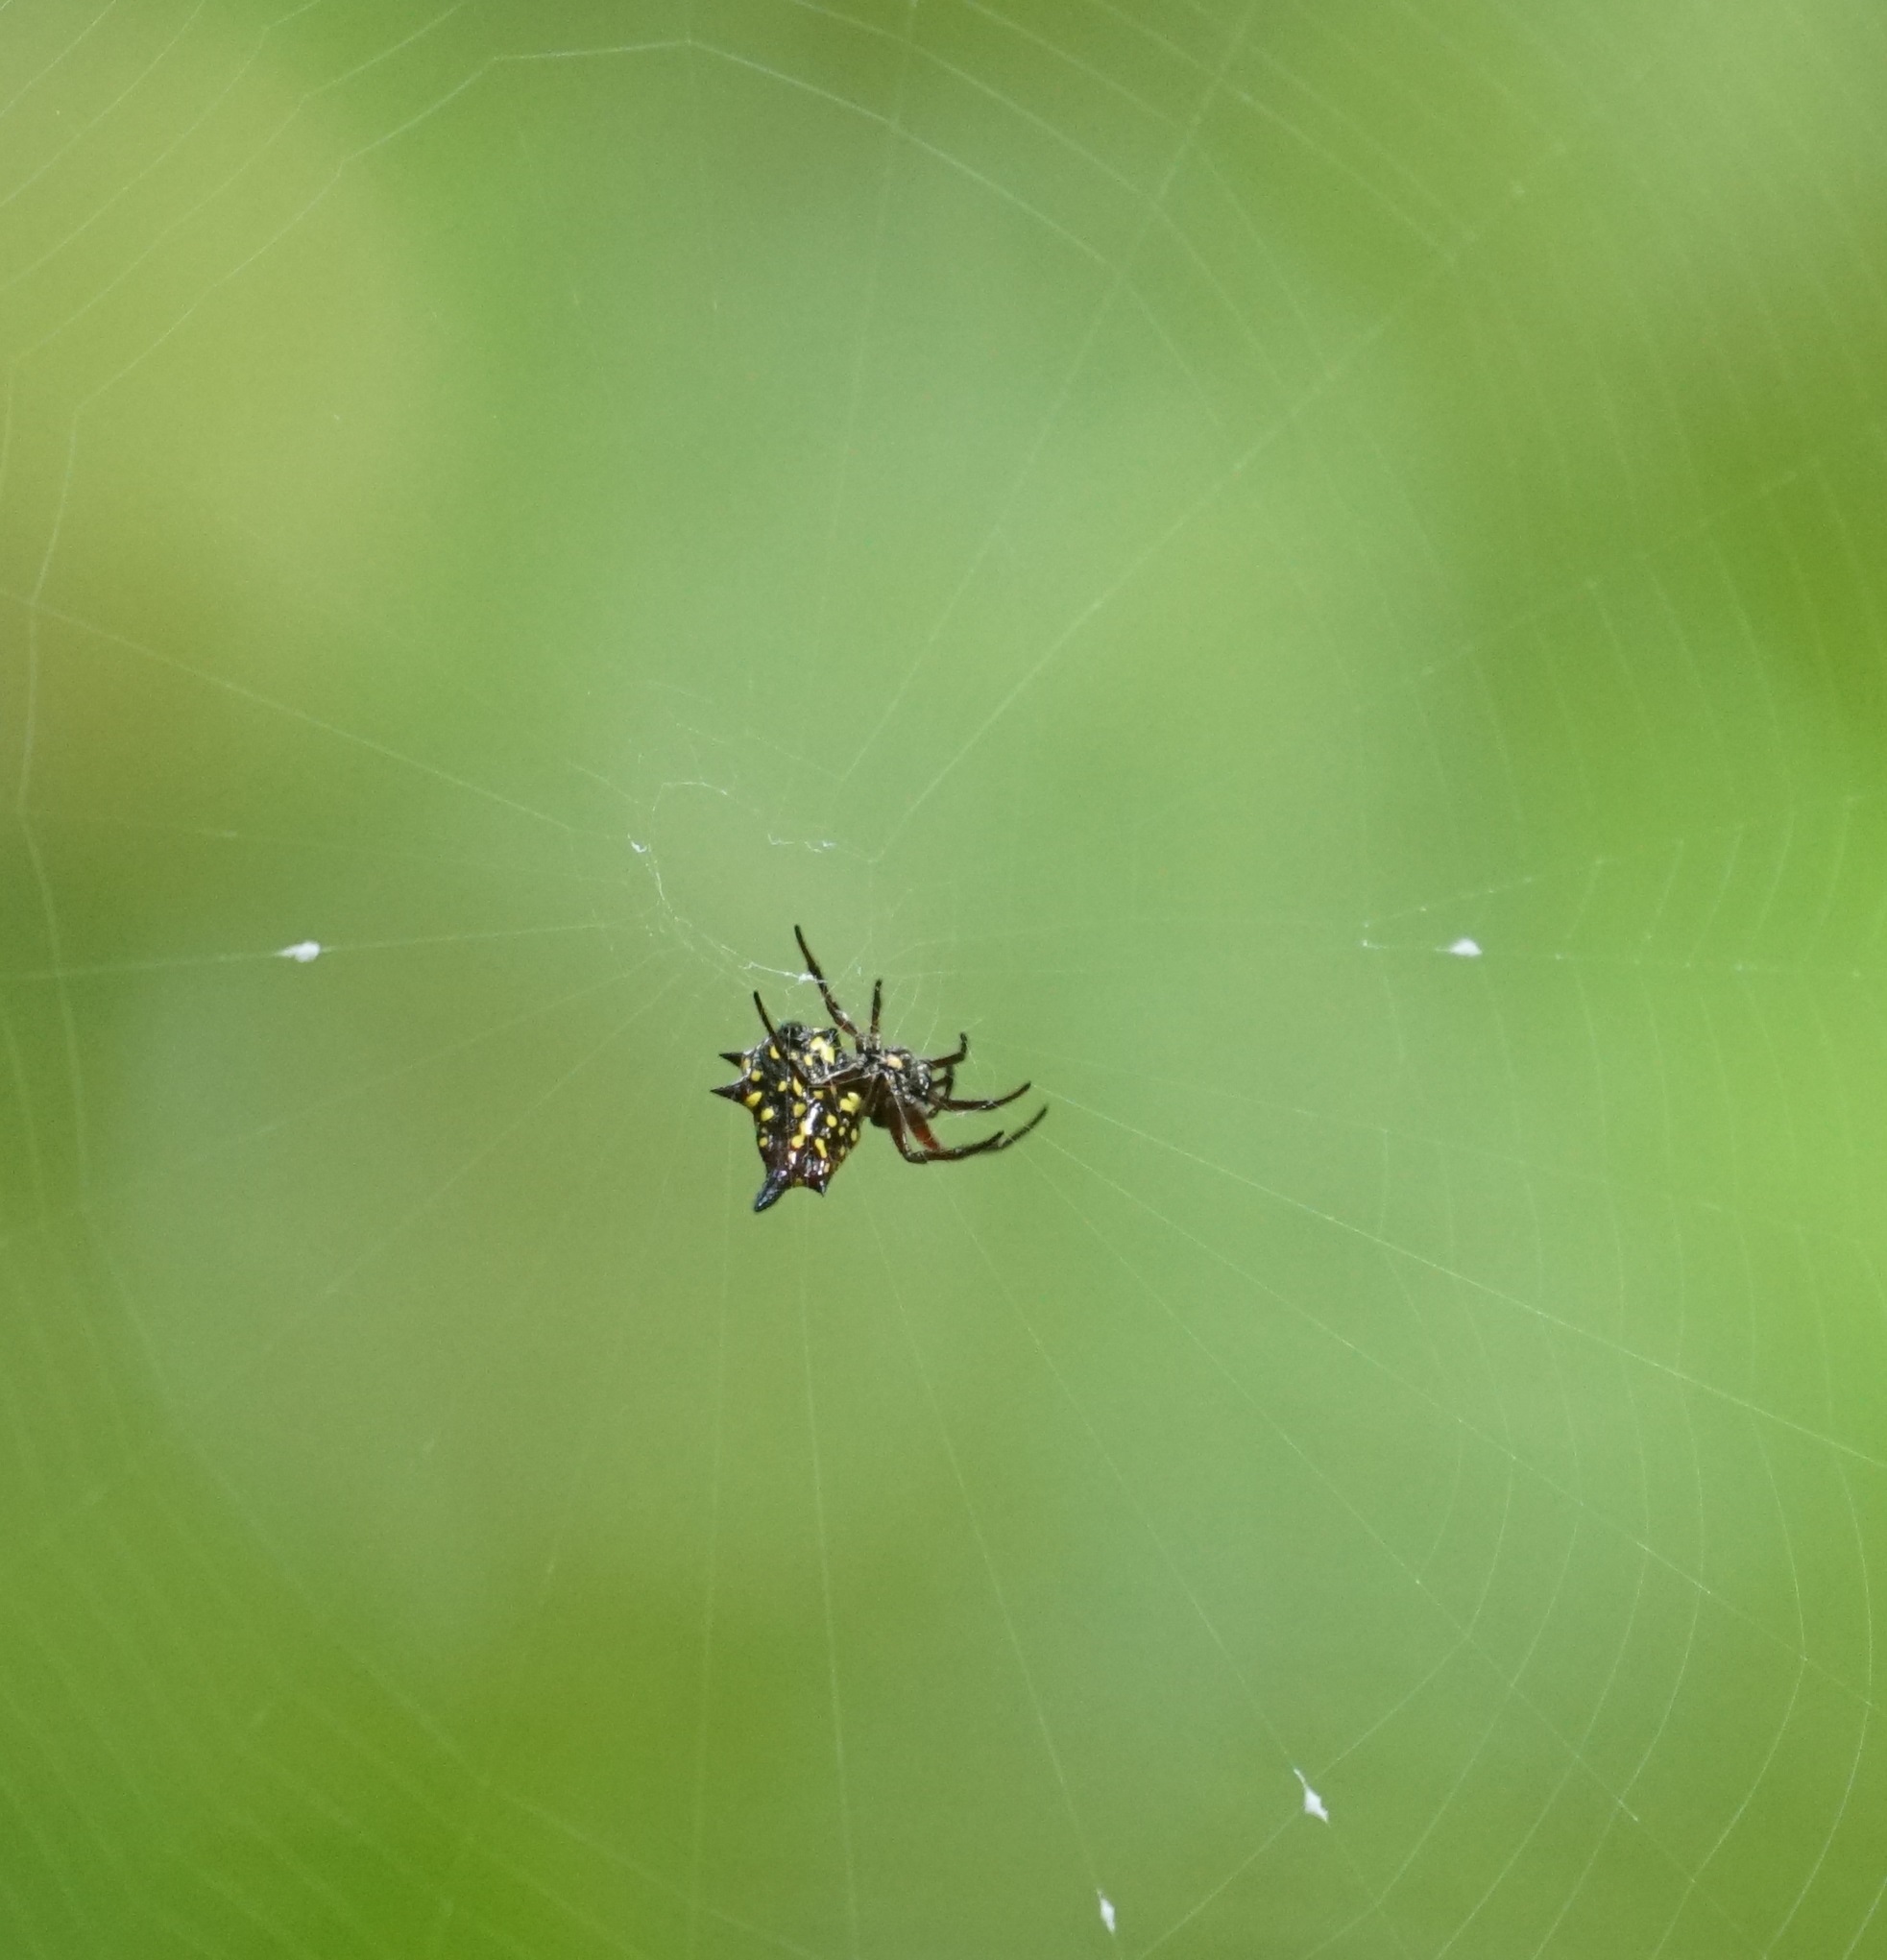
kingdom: Animalia
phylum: Arthropoda
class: Arachnida
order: Araneae
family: Araneidae
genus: Gasteracantha
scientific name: Gasteracantha fornicata
